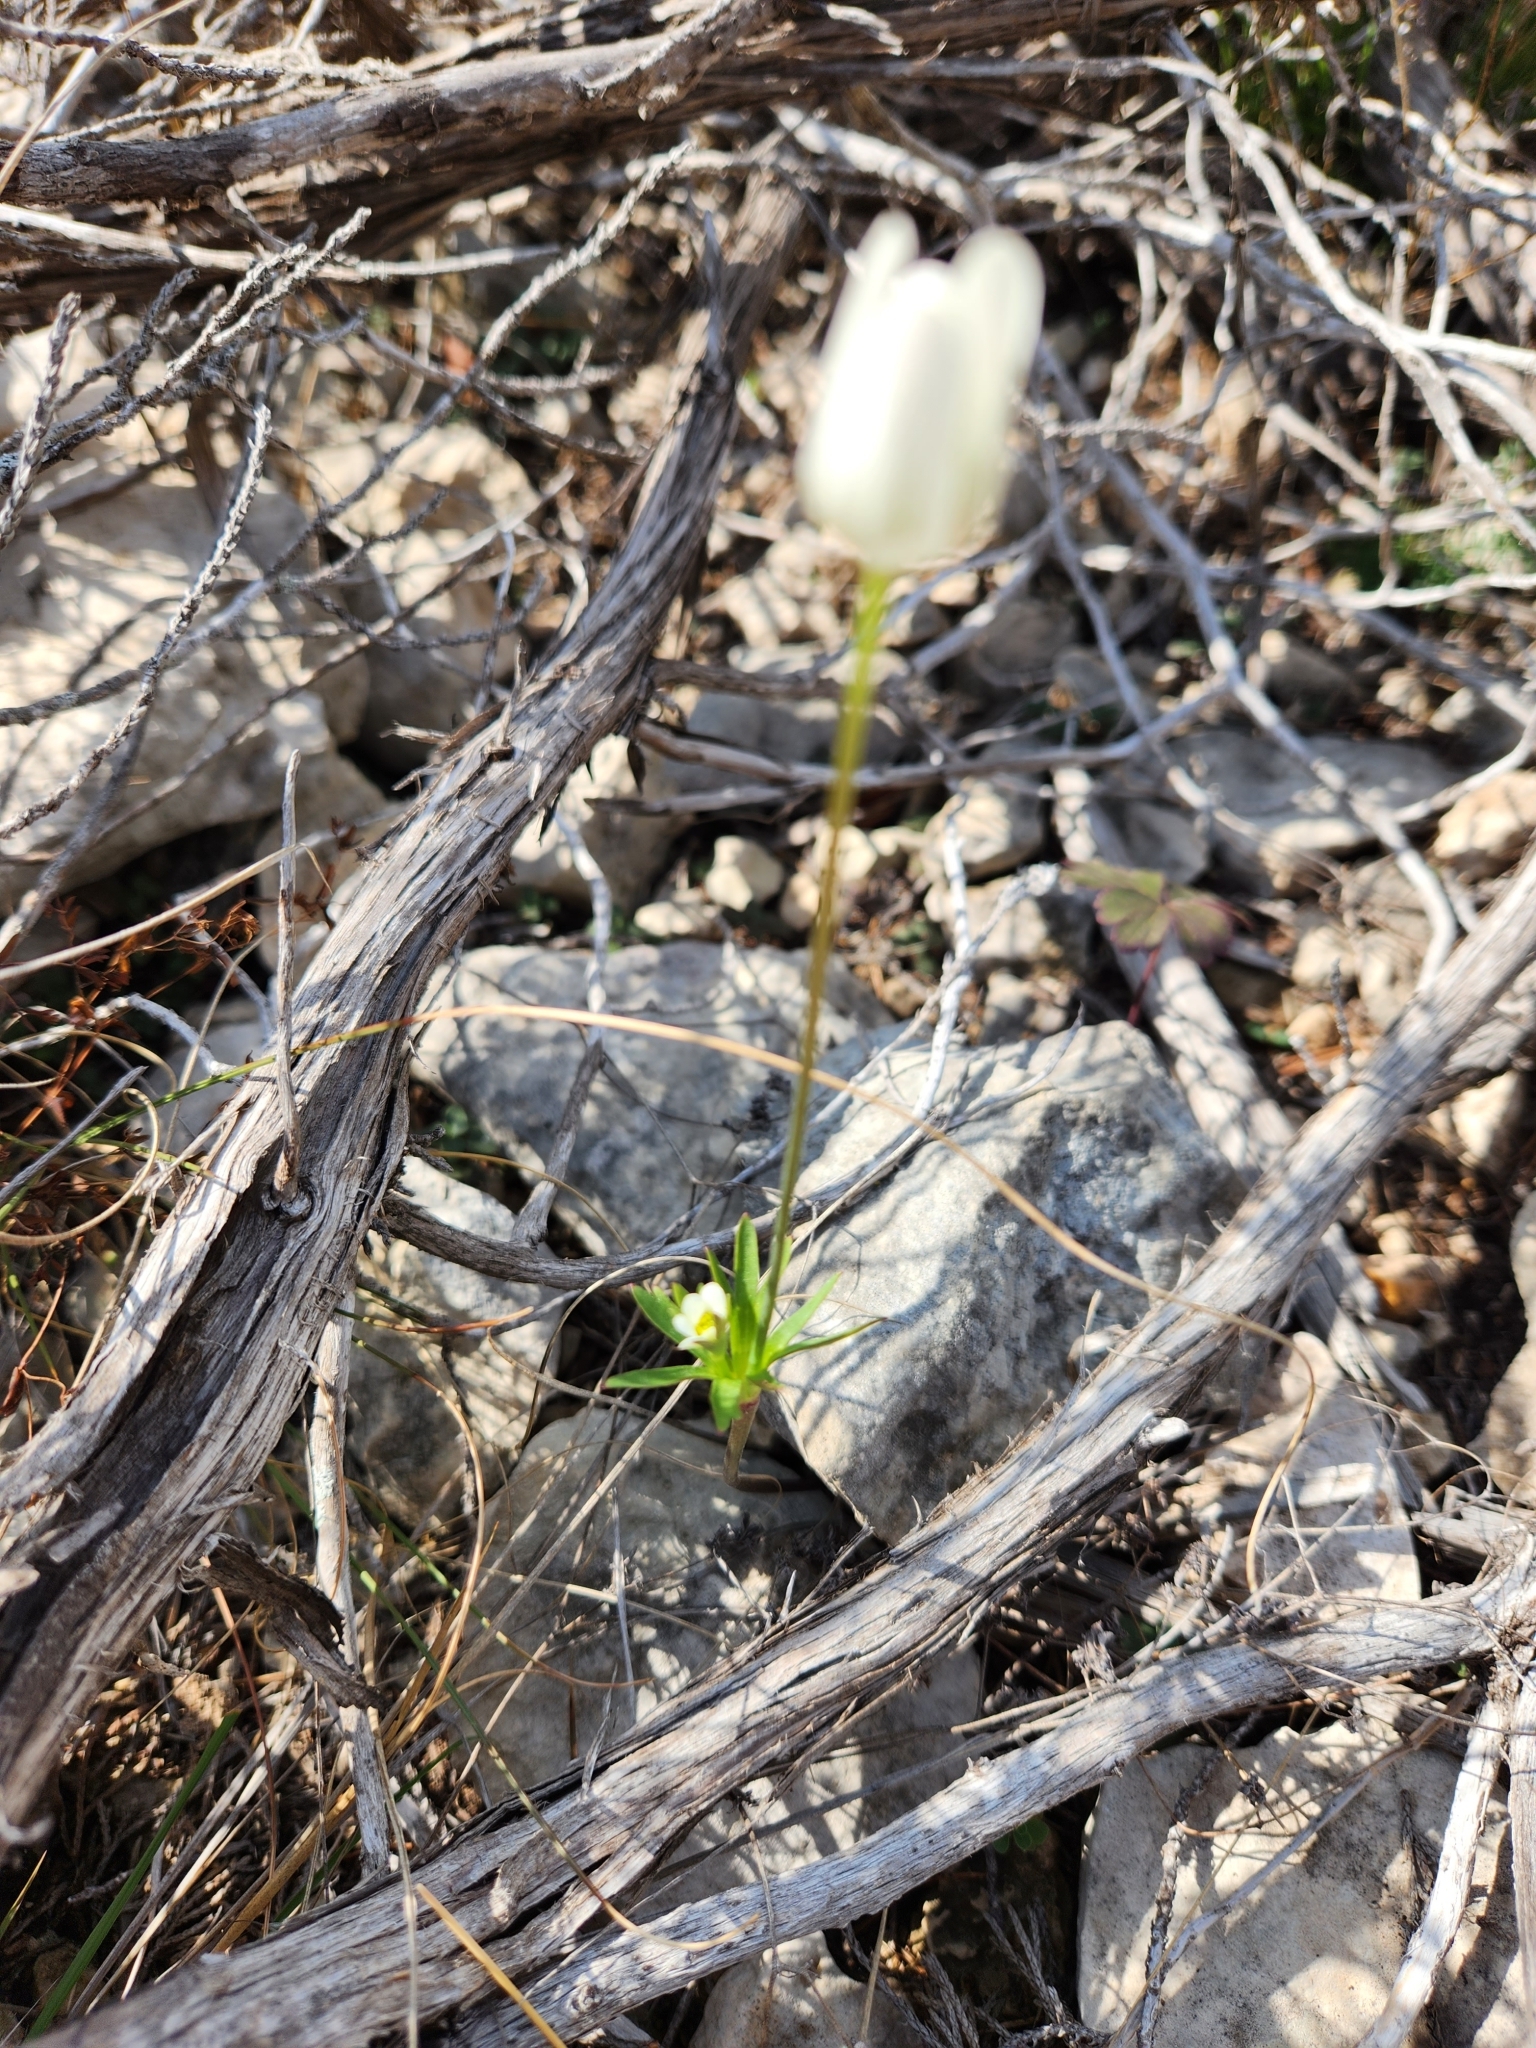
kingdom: Plantae
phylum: Tracheophyta
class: Magnoliopsida
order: Ranunculales
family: Ranunculaceae
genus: Anemone
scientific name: Anemone edwardsiana
